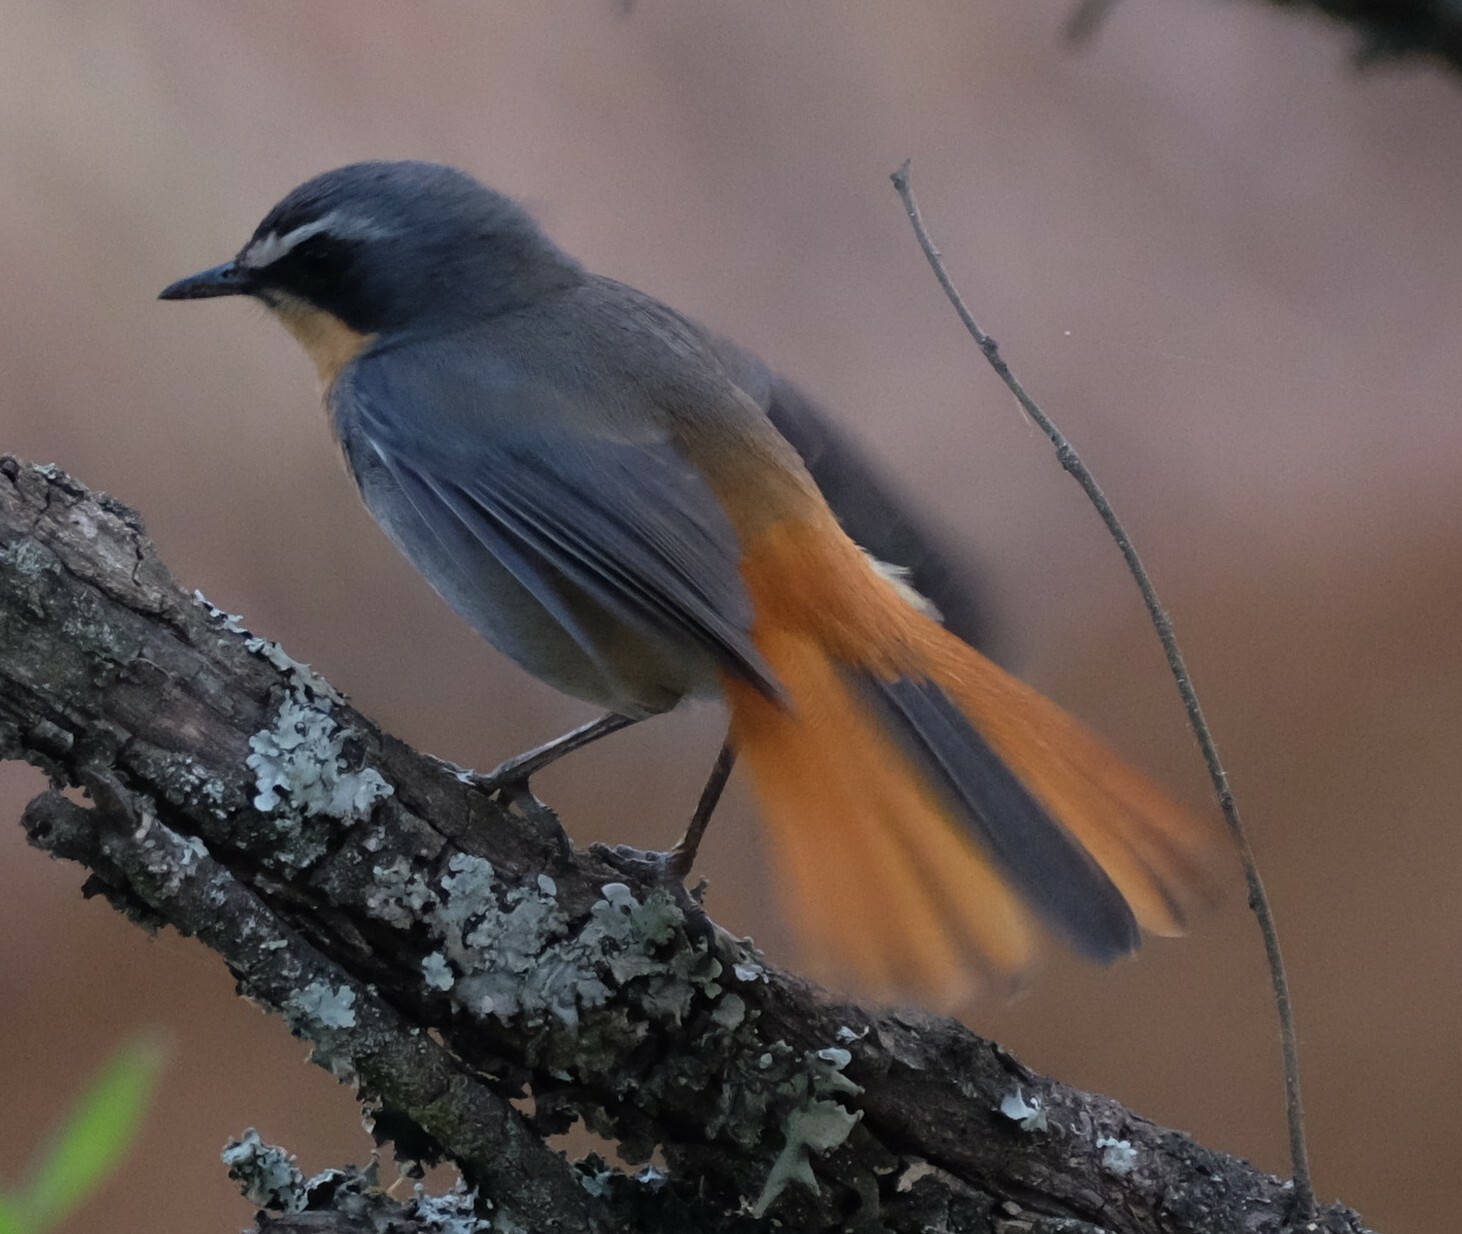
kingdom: Animalia
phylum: Chordata
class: Aves
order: Passeriformes
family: Muscicapidae
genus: Cossypha
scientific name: Cossypha caffra
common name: Cape robin-chat
